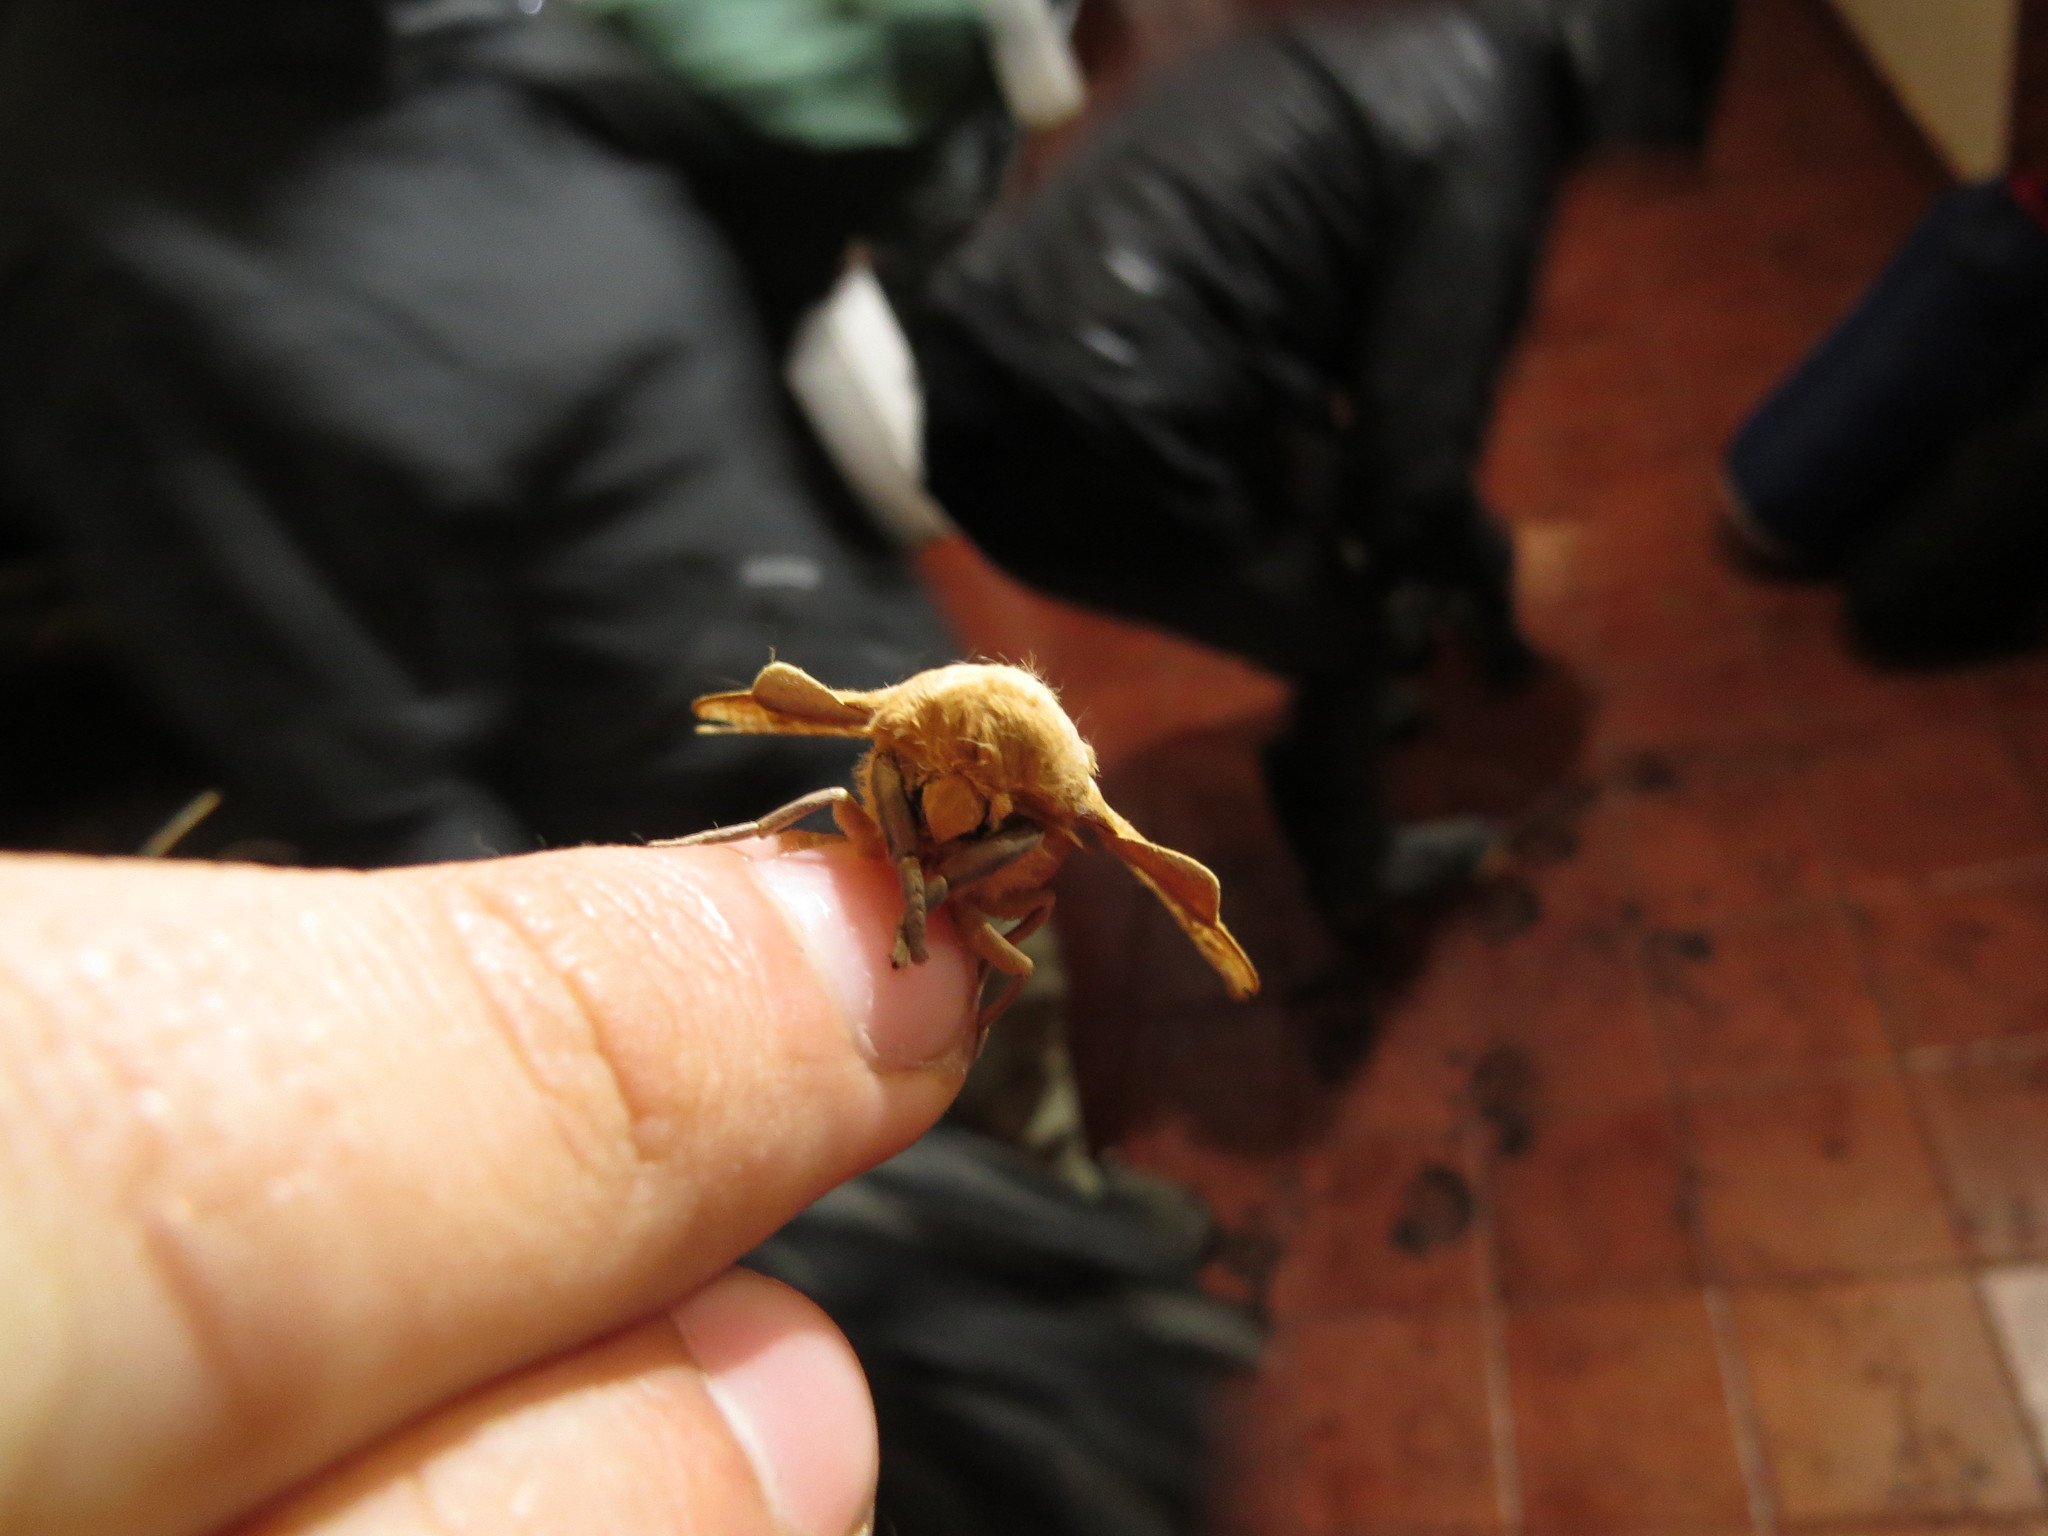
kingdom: Animalia
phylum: Arthropoda
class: Insecta
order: Lepidoptera
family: Saturniidae
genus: Syssphinx
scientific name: Syssphinx molina
